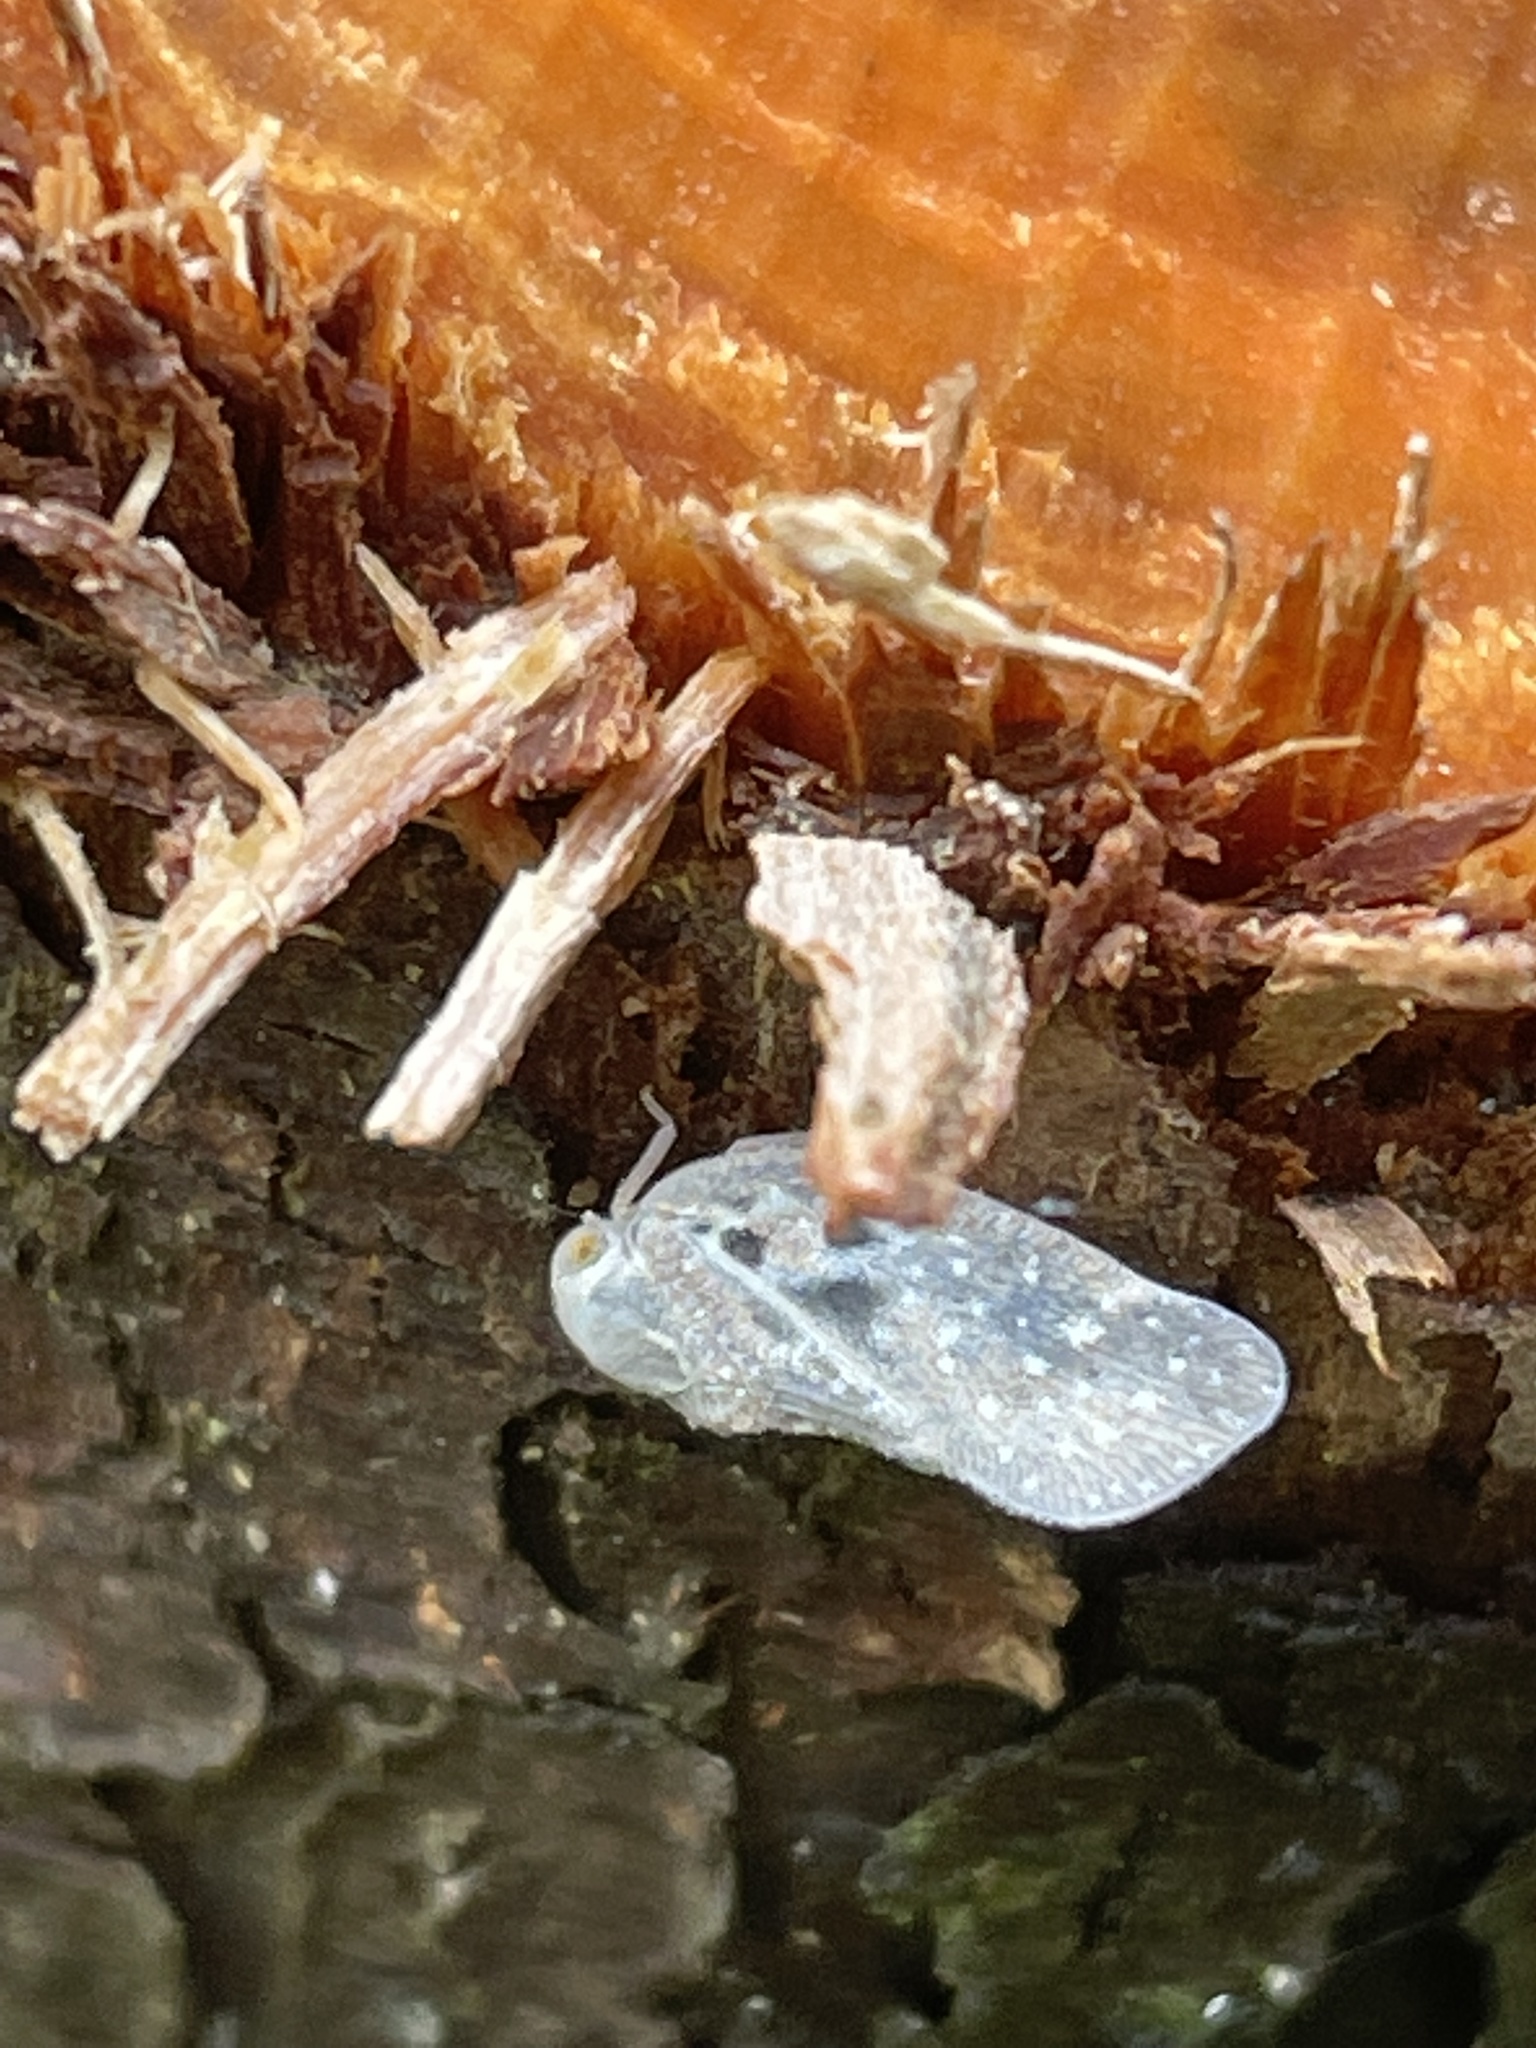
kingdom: Animalia
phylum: Arthropoda
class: Insecta
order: Hemiptera
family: Flatidae
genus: Metcalfa
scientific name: Metcalfa pruinosa
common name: Citrus flatid planthopper
